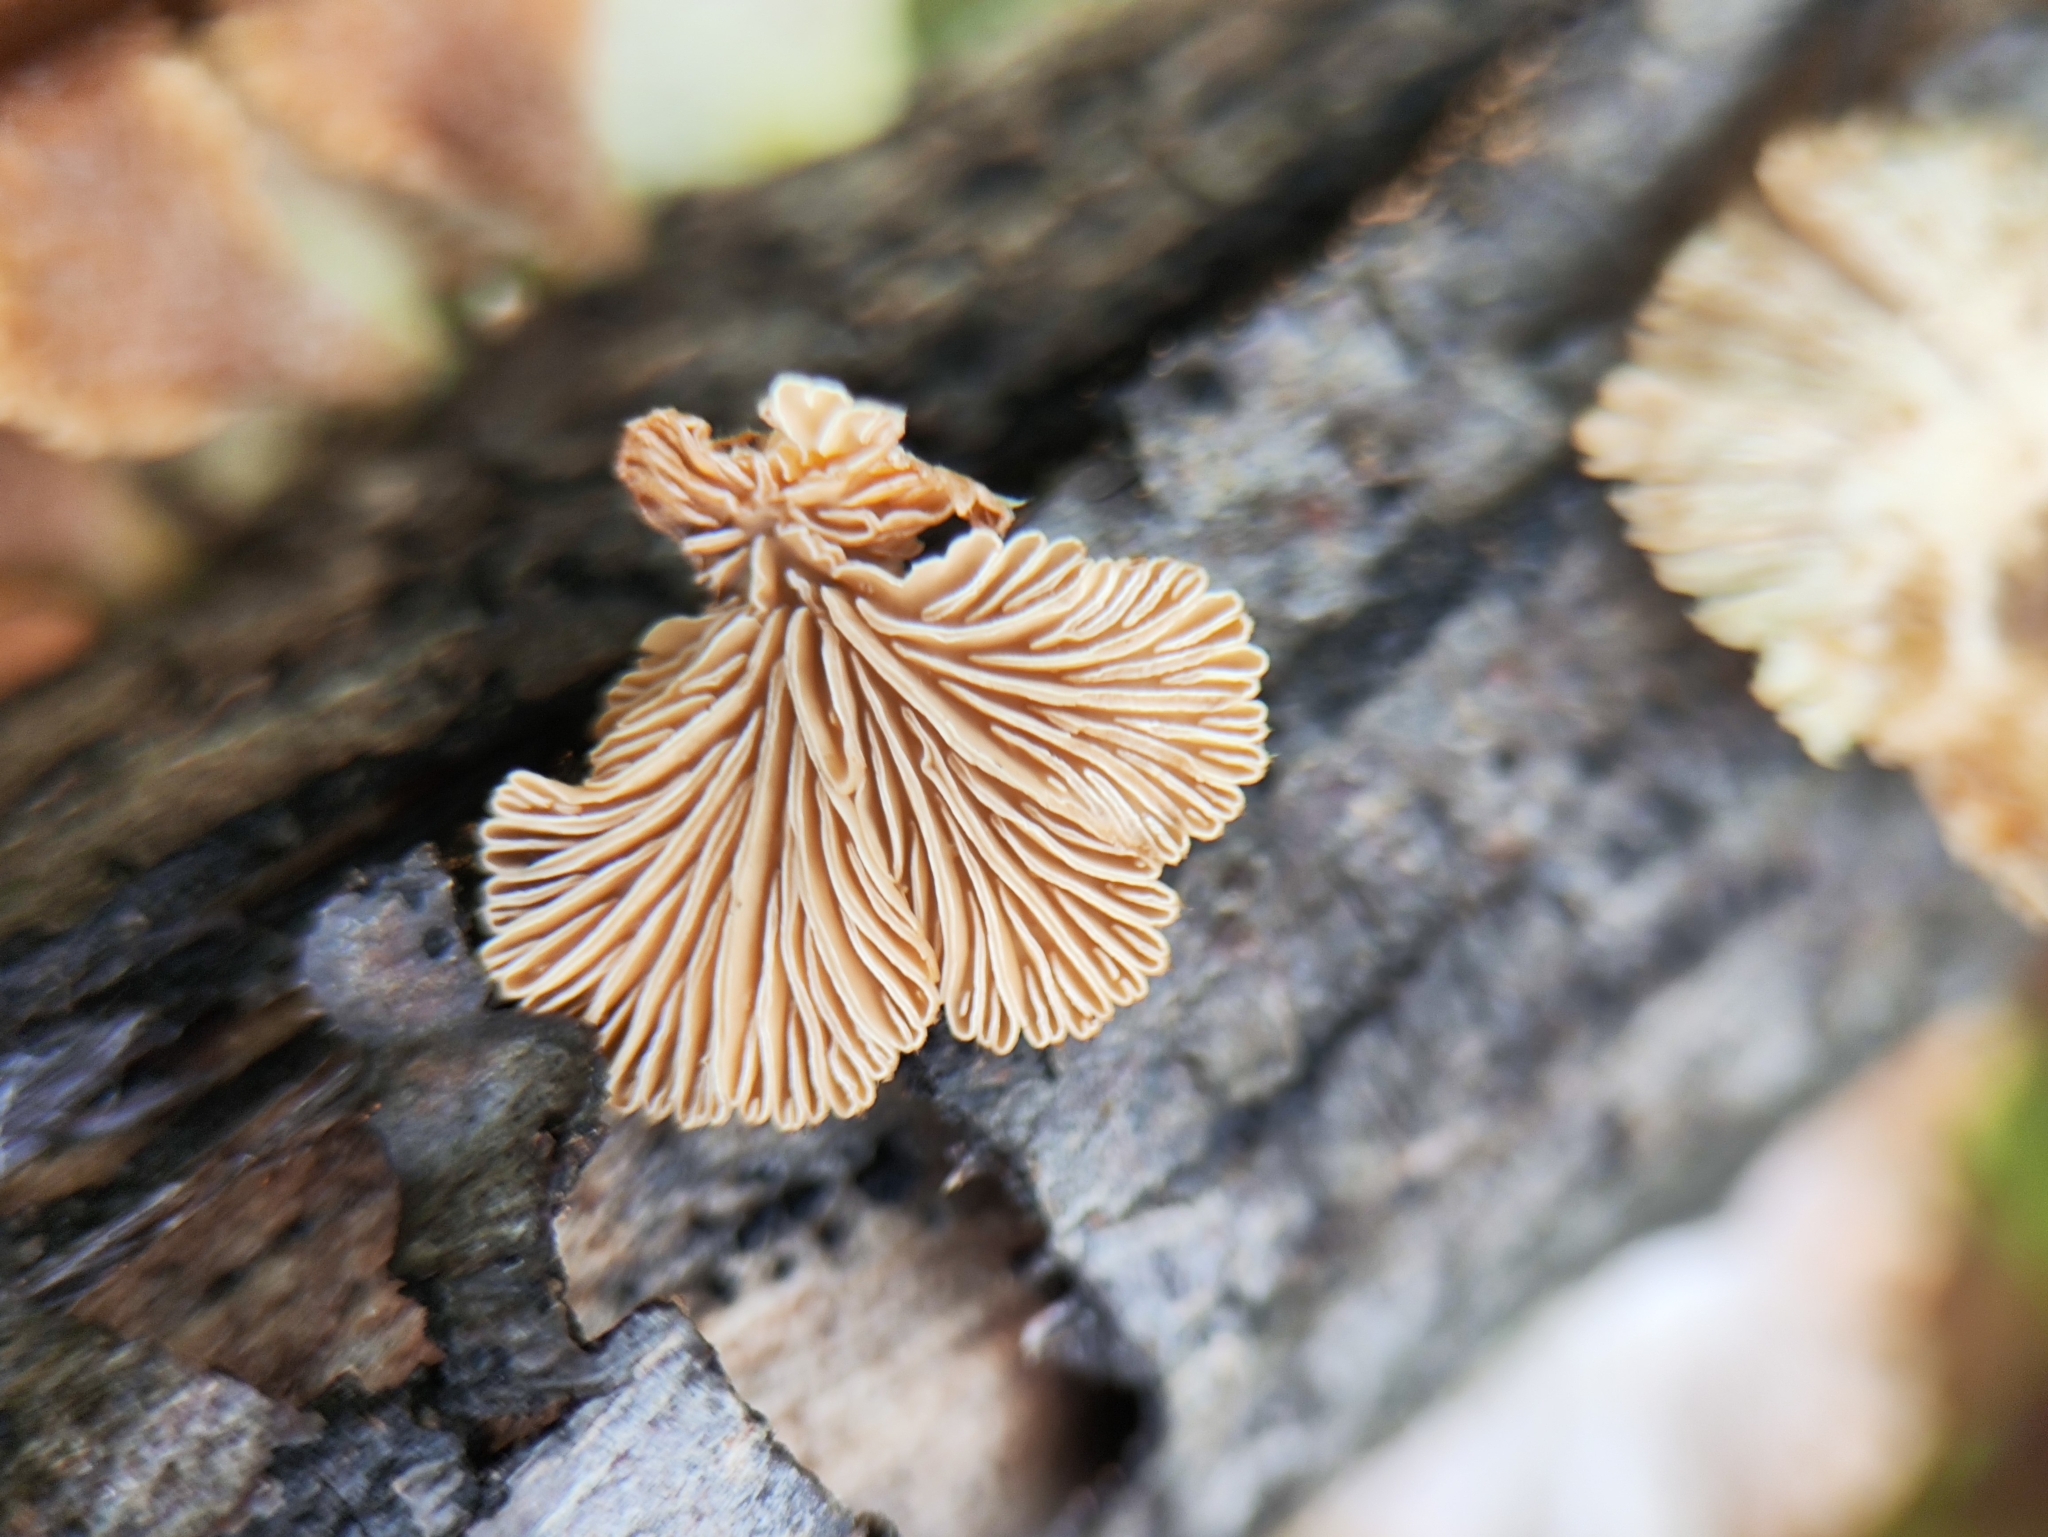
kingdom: Fungi
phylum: Basidiomycota
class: Agaricomycetes
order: Agaricales
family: Schizophyllaceae
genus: Schizophyllum
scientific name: Schizophyllum commune
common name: Common porecrust
